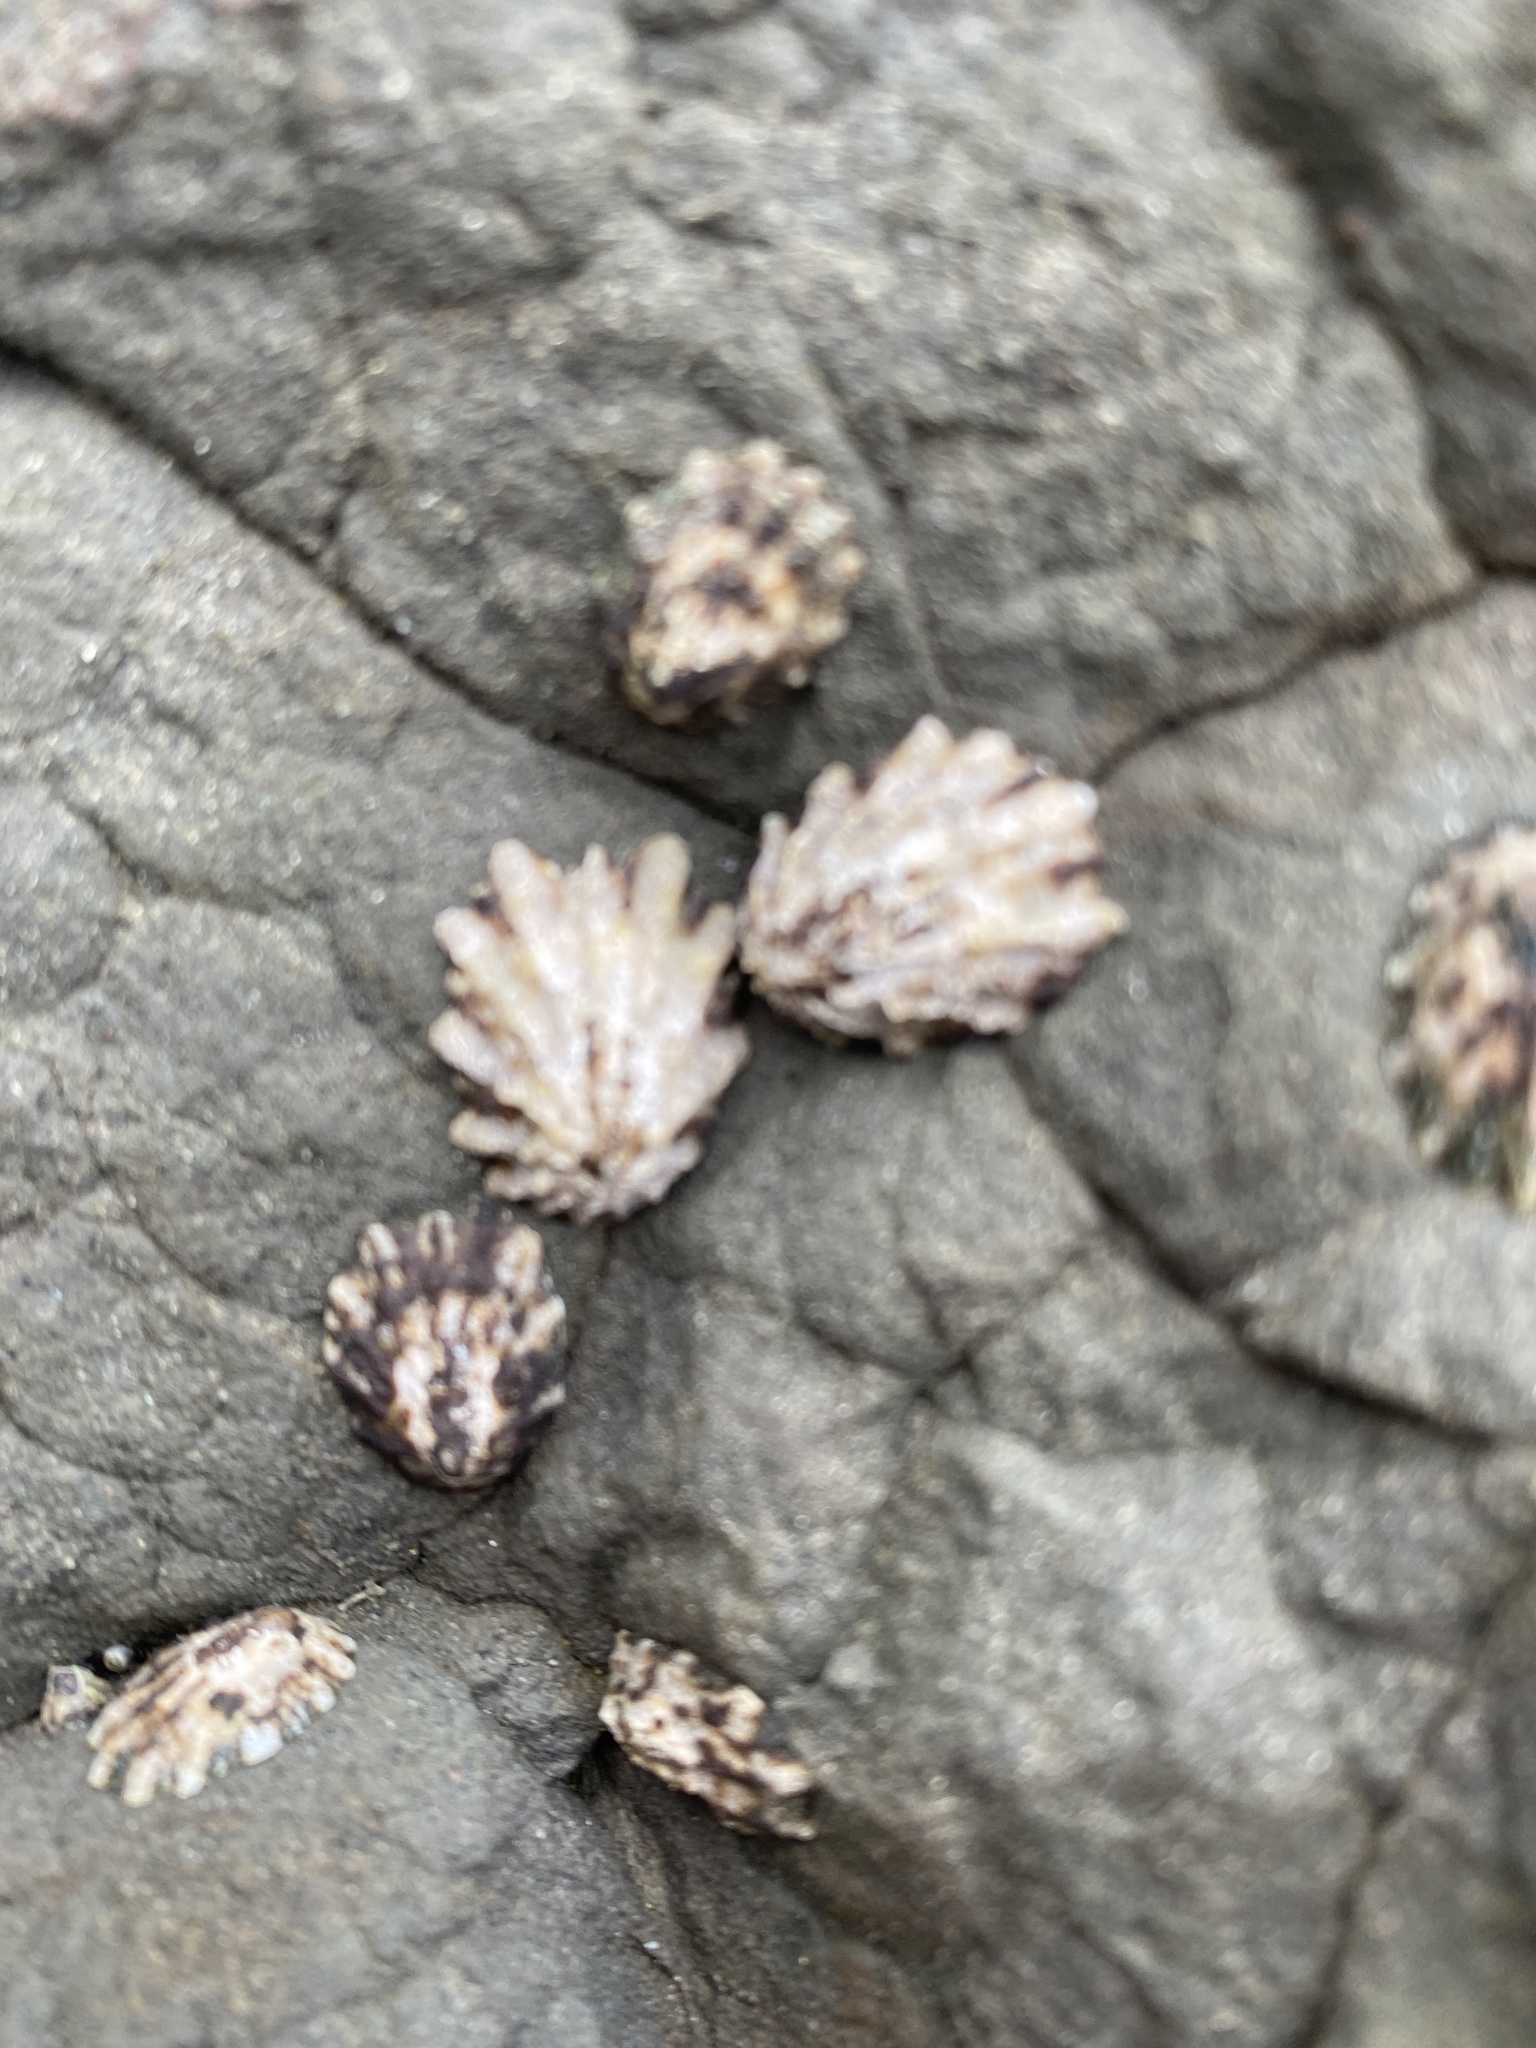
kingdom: Animalia
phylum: Mollusca
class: Gastropoda
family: Lottiidae
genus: Lottia
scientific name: Lottia scabra
